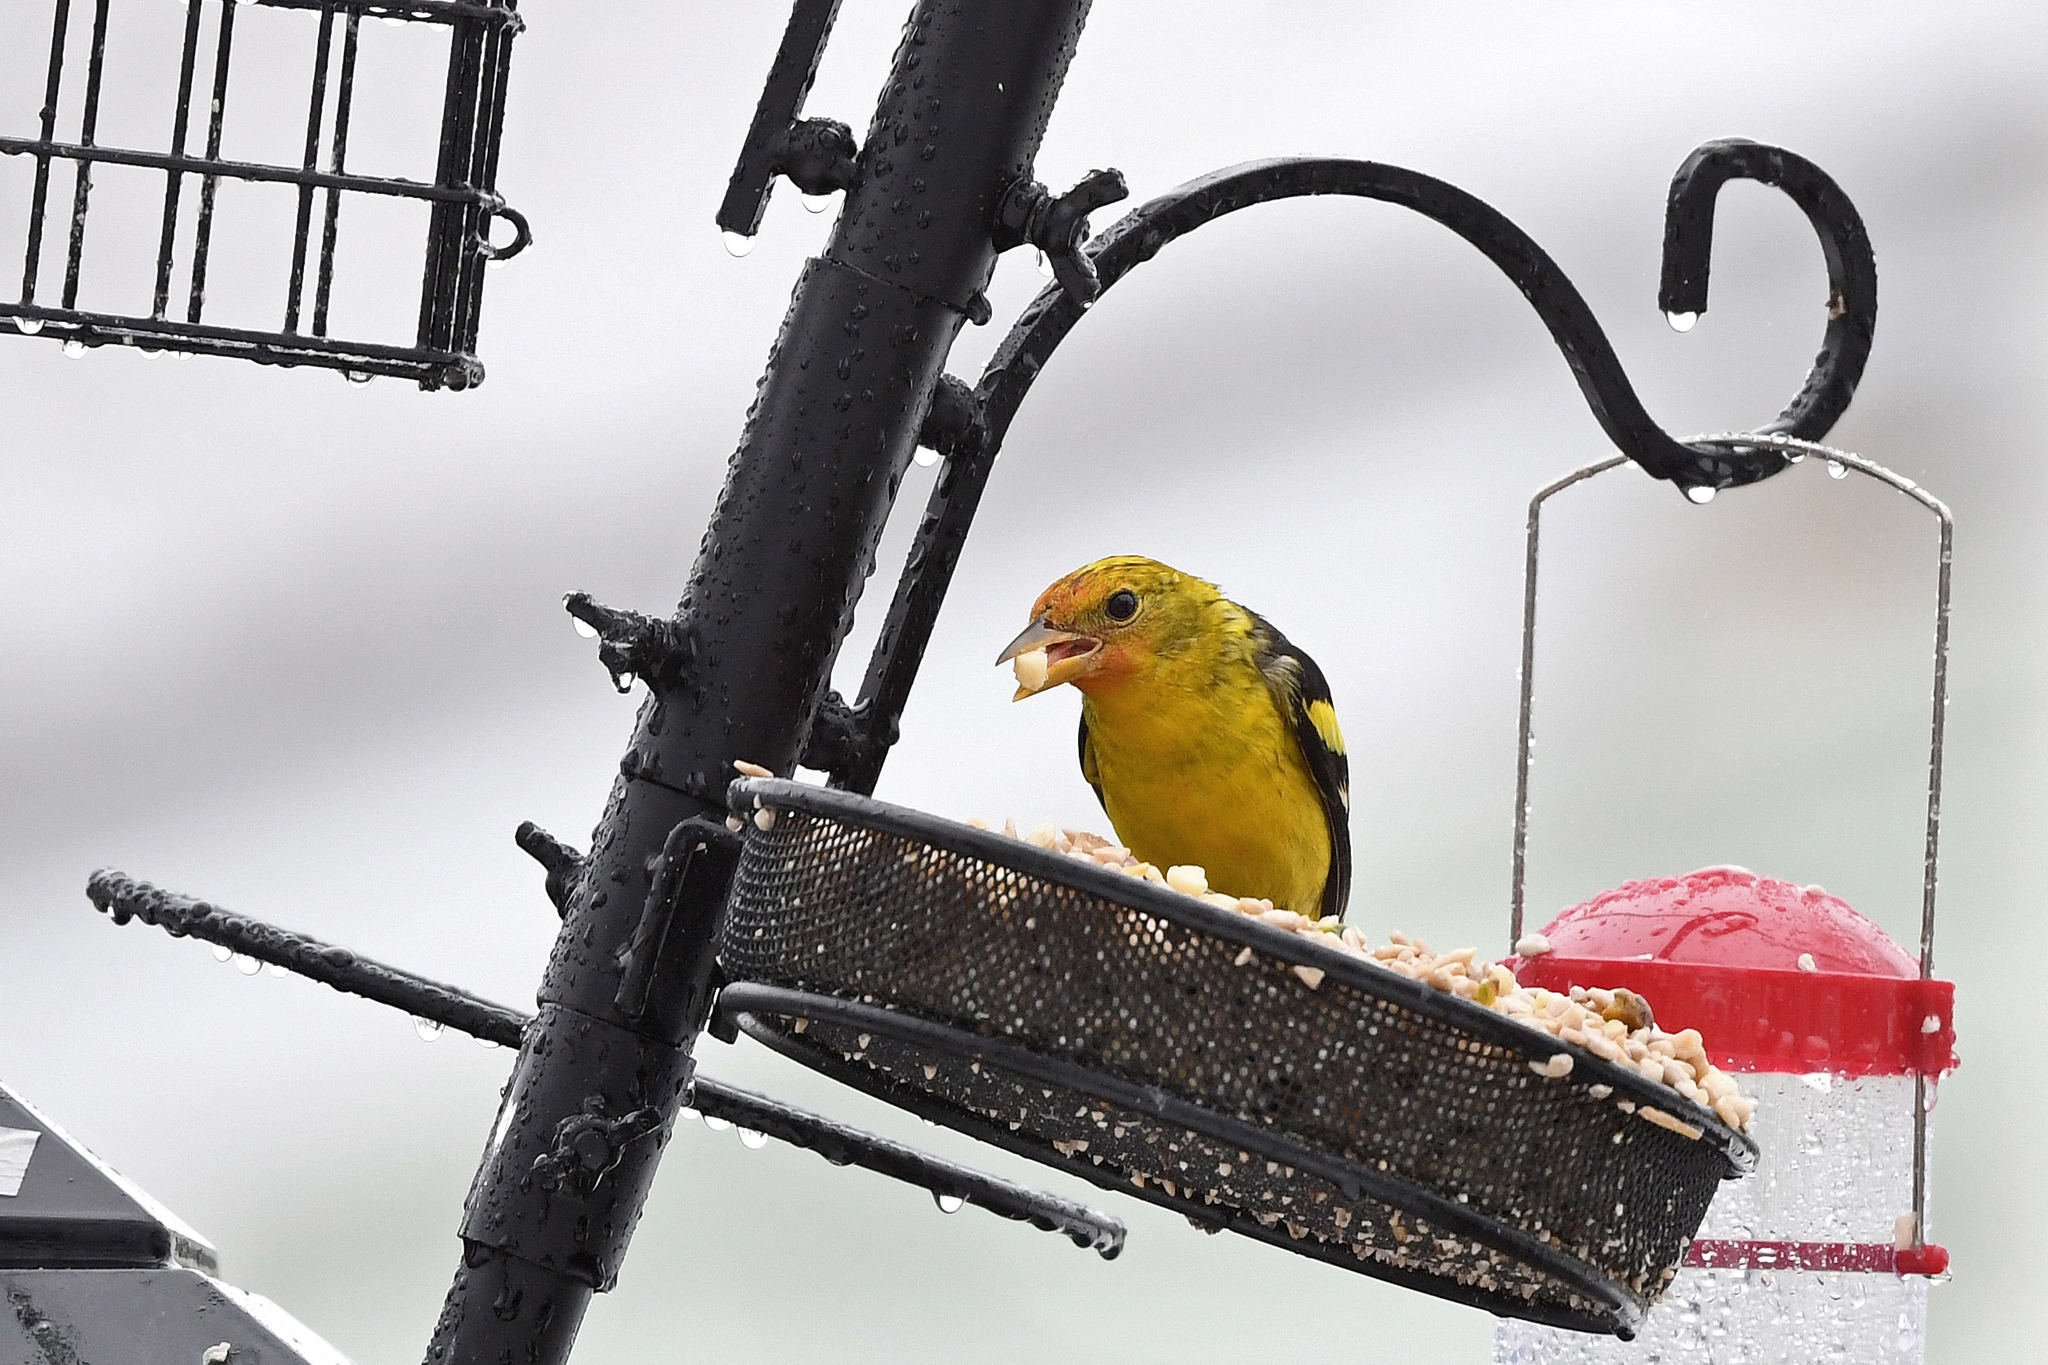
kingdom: Animalia
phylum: Chordata
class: Aves
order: Passeriformes
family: Cardinalidae
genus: Piranga
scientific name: Piranga ludoviciana
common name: Western tanager
